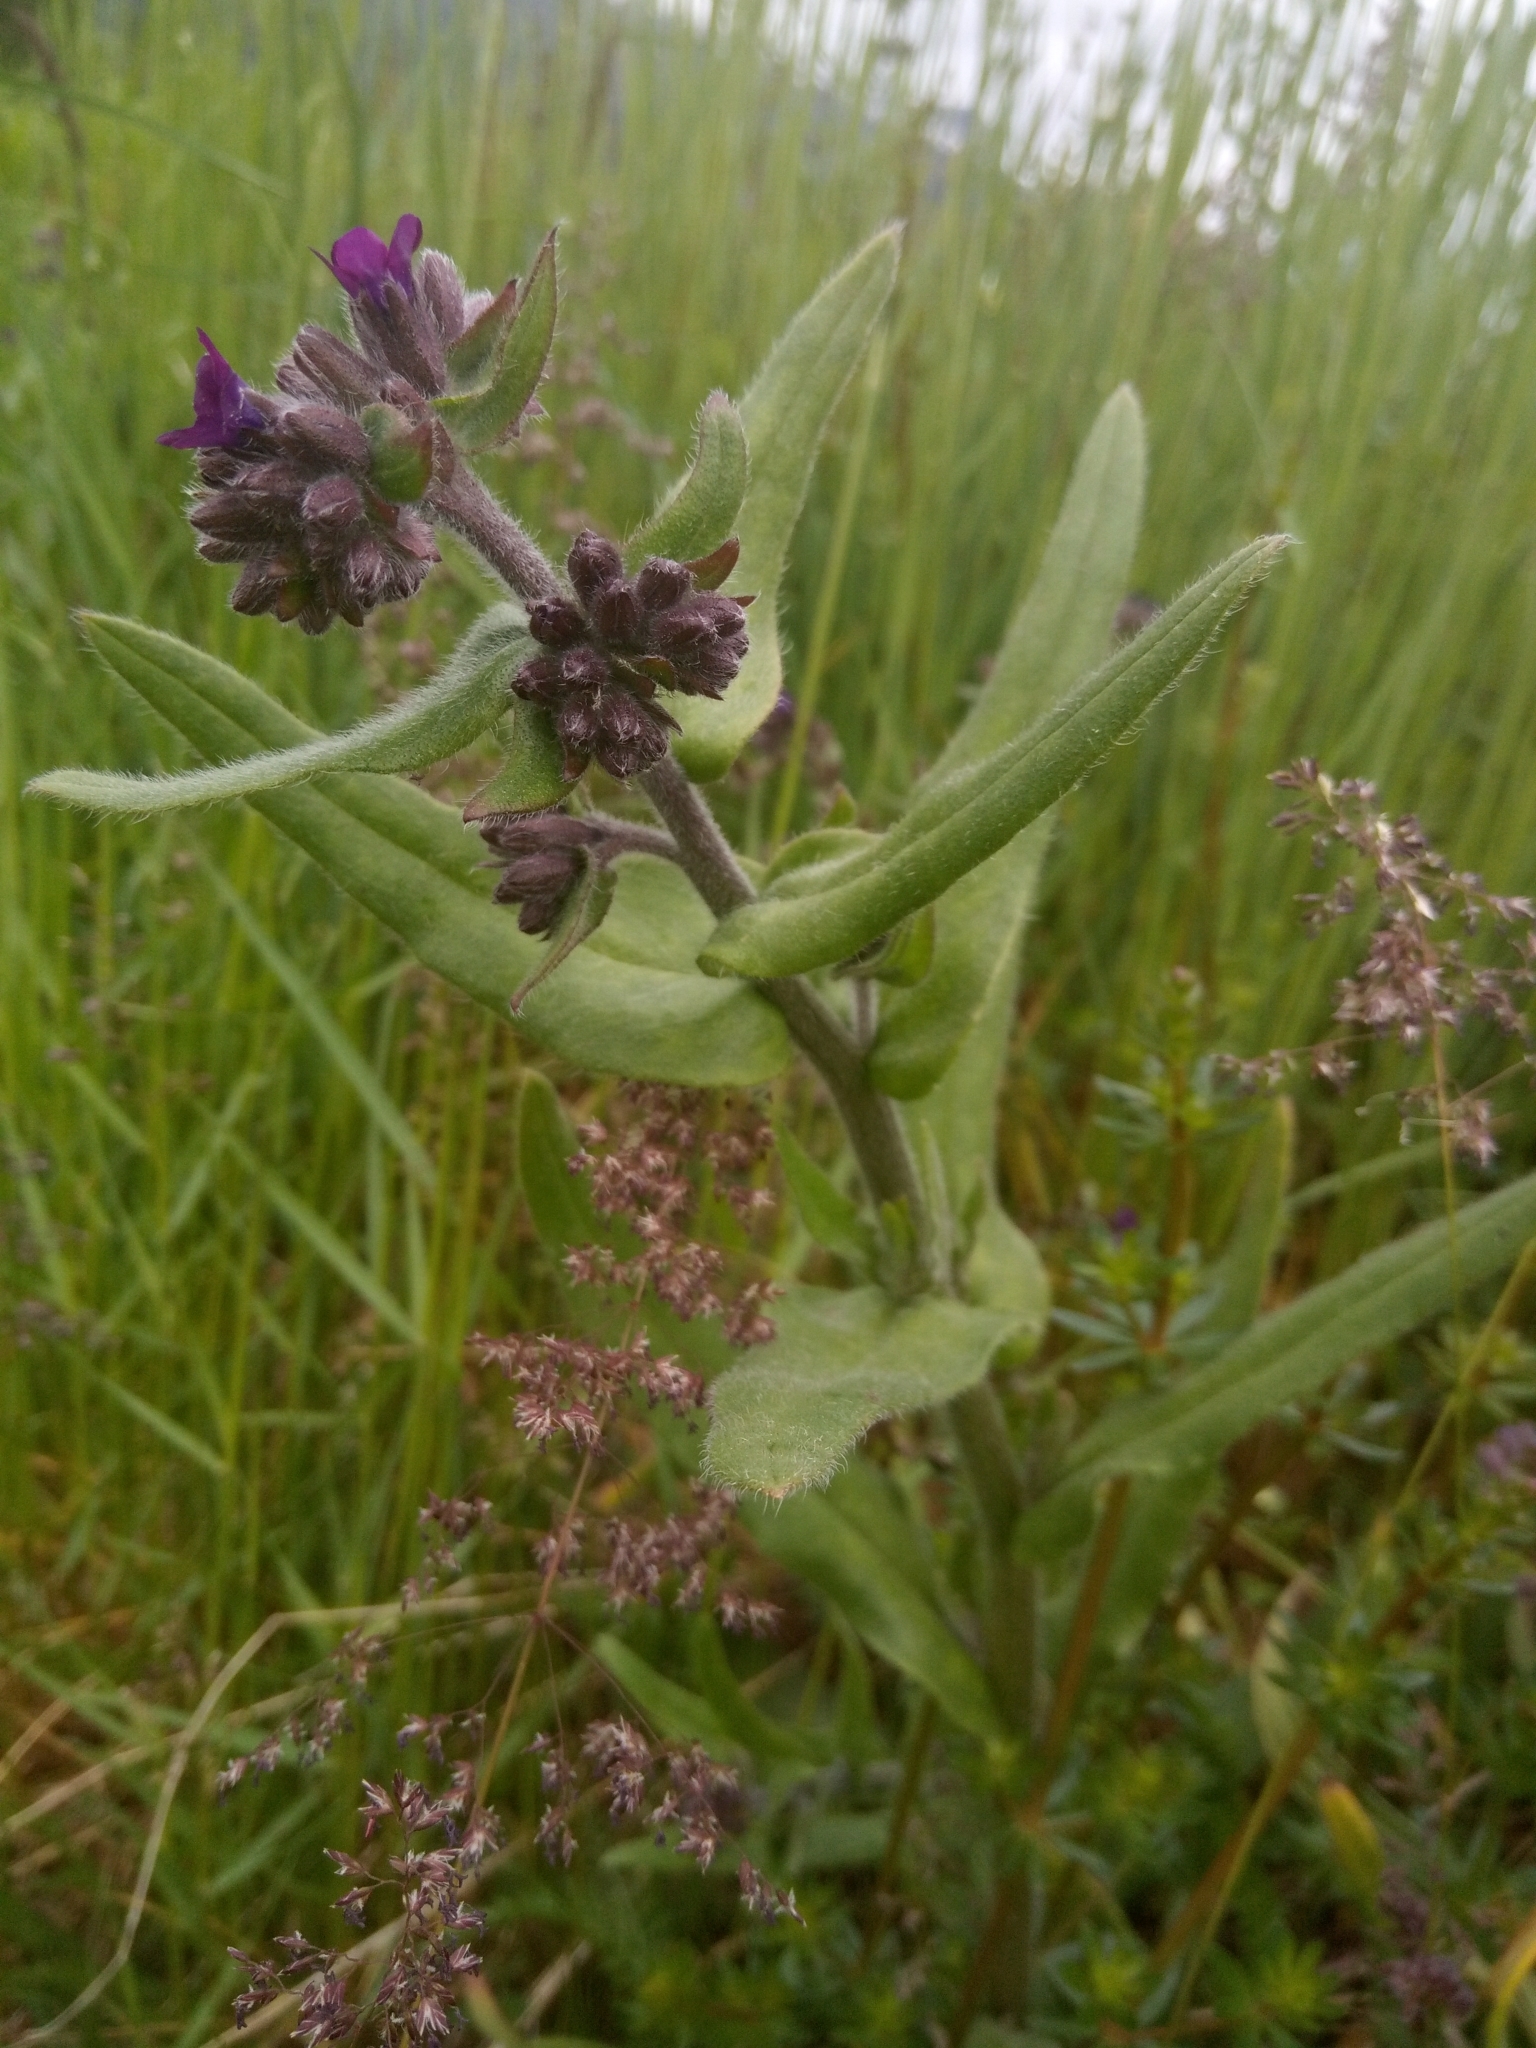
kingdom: Plantae
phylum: Tracheophyta
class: Magnoliopsida
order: Boraginales
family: Boraginaceae
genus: Anchusa
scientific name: Anchusa officinalis
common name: Alkanet
